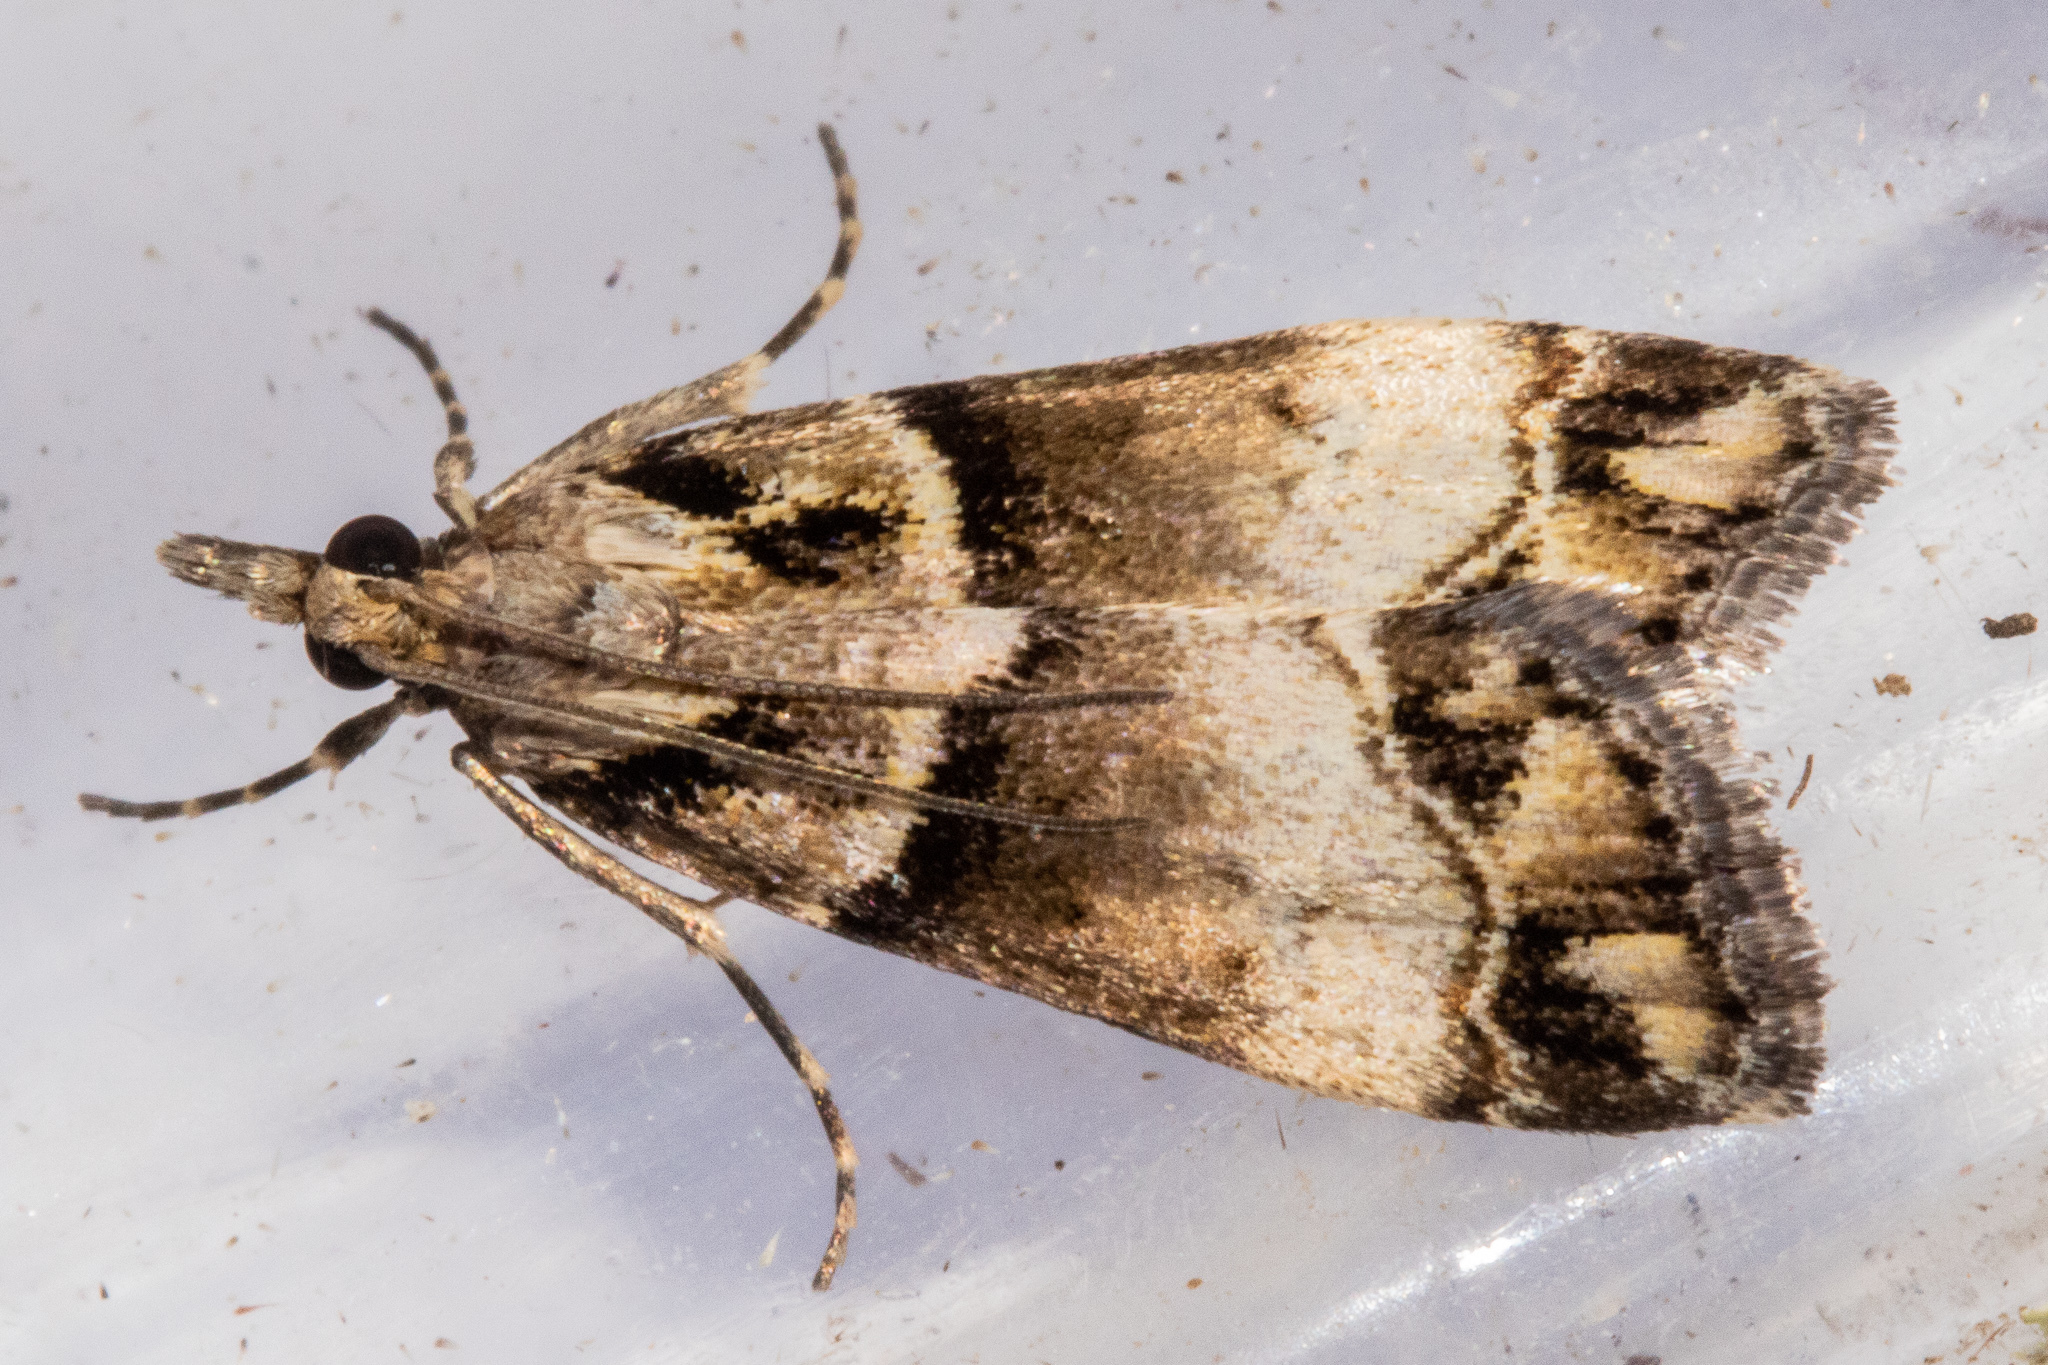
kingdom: Animalia
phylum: Arthropoda
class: Insecta
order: Lepidoptera
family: Crambidae
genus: Eudonia
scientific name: Eudonia periphanes
